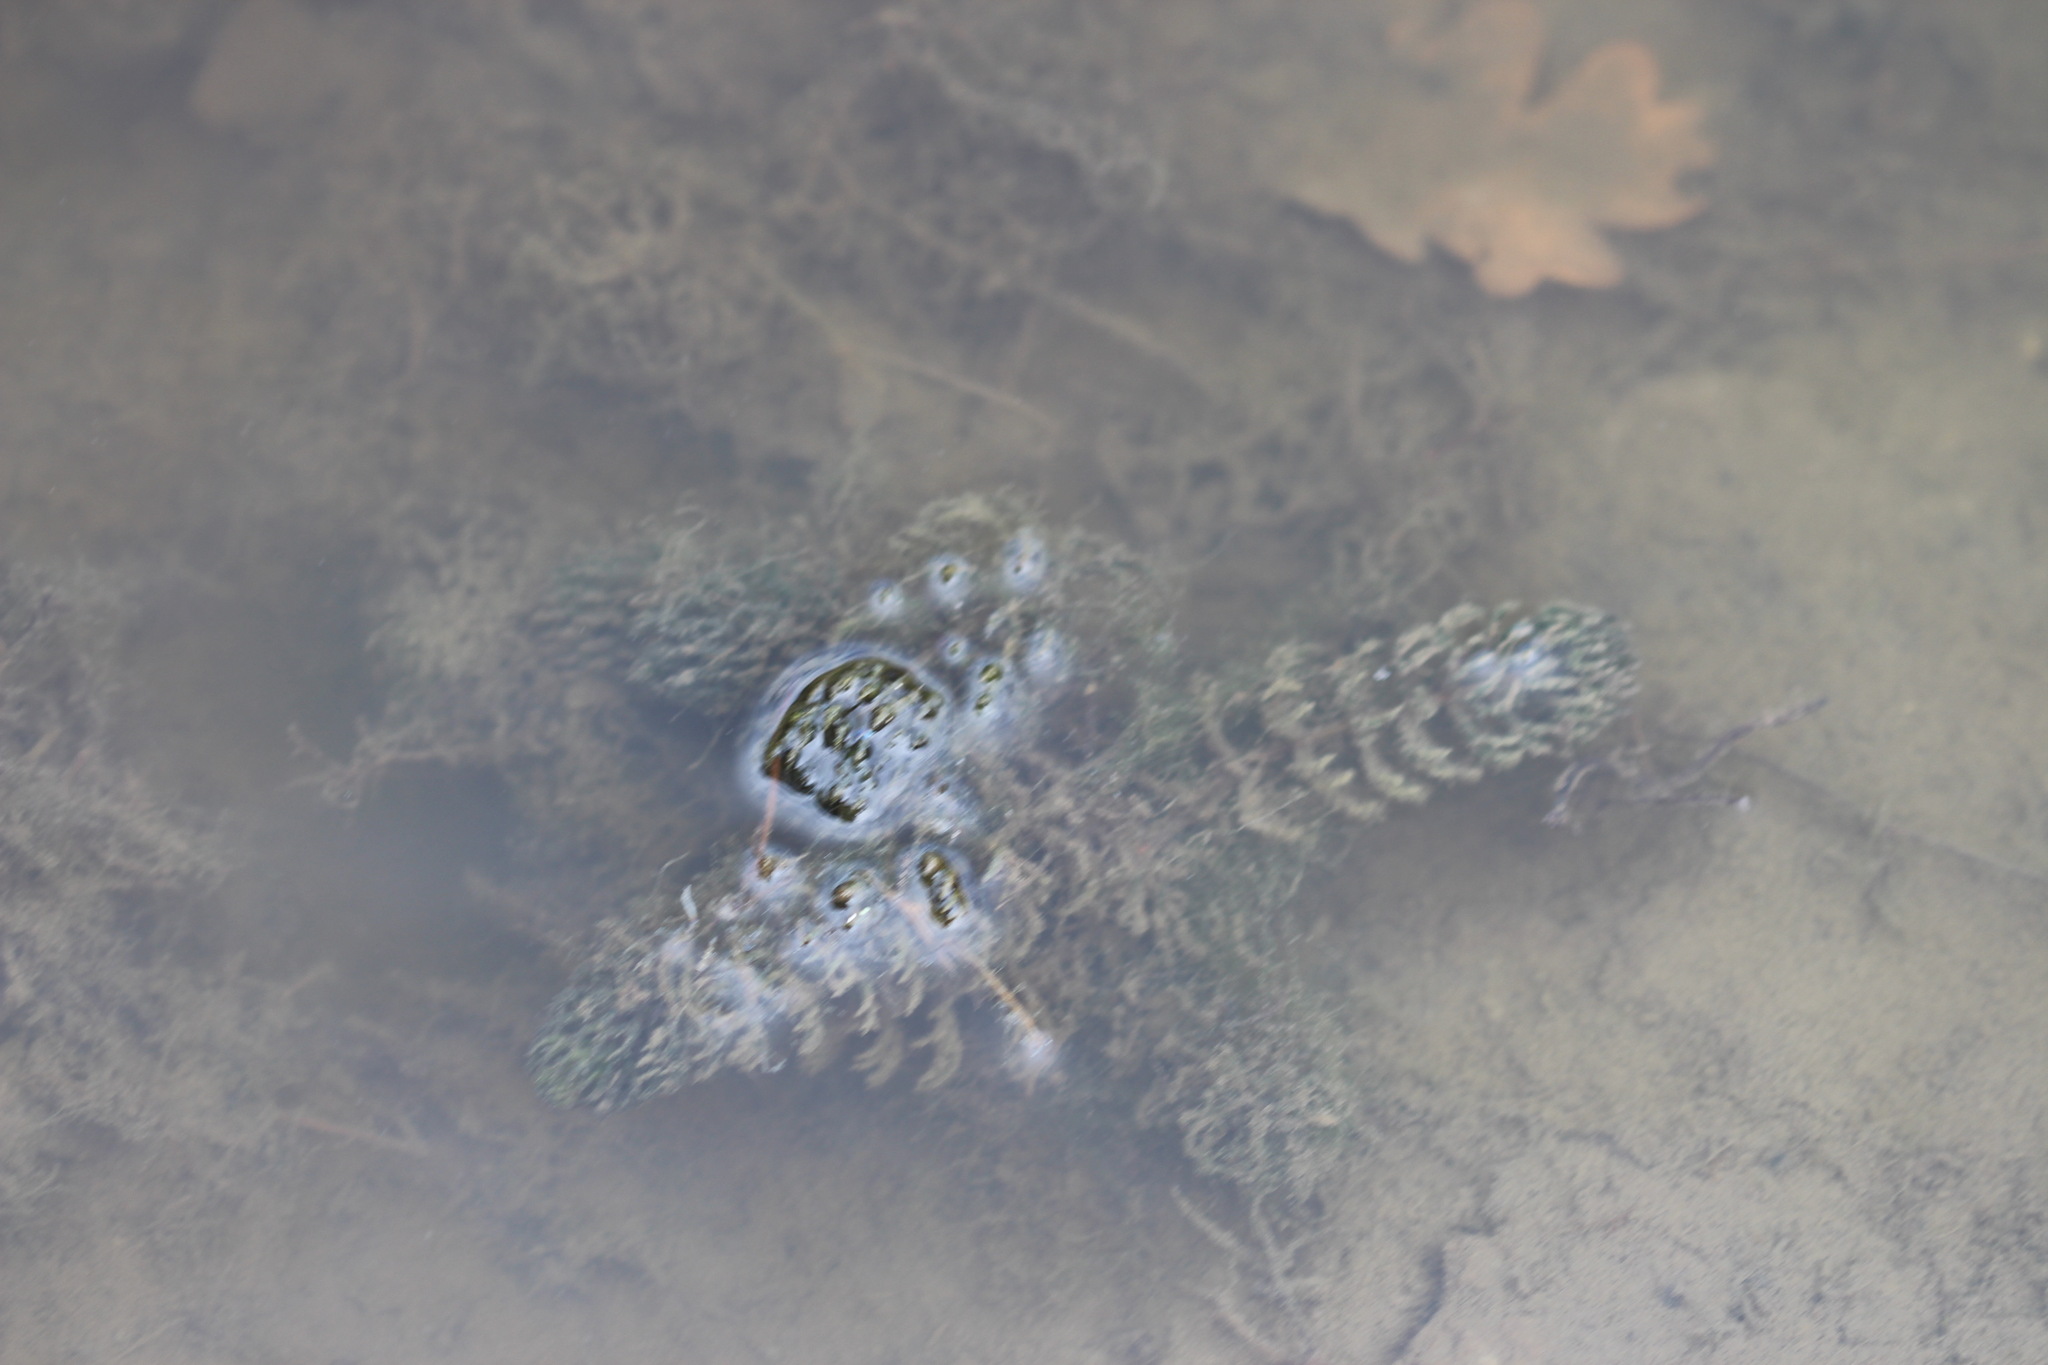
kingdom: Plantae
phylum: Tracheophyta
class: Magnoliopsida
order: Ceratophyllales
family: Ceratophyllaceae
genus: Ceratophyllum
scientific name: Ceratophyllum demersum
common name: Rigid hornwort
